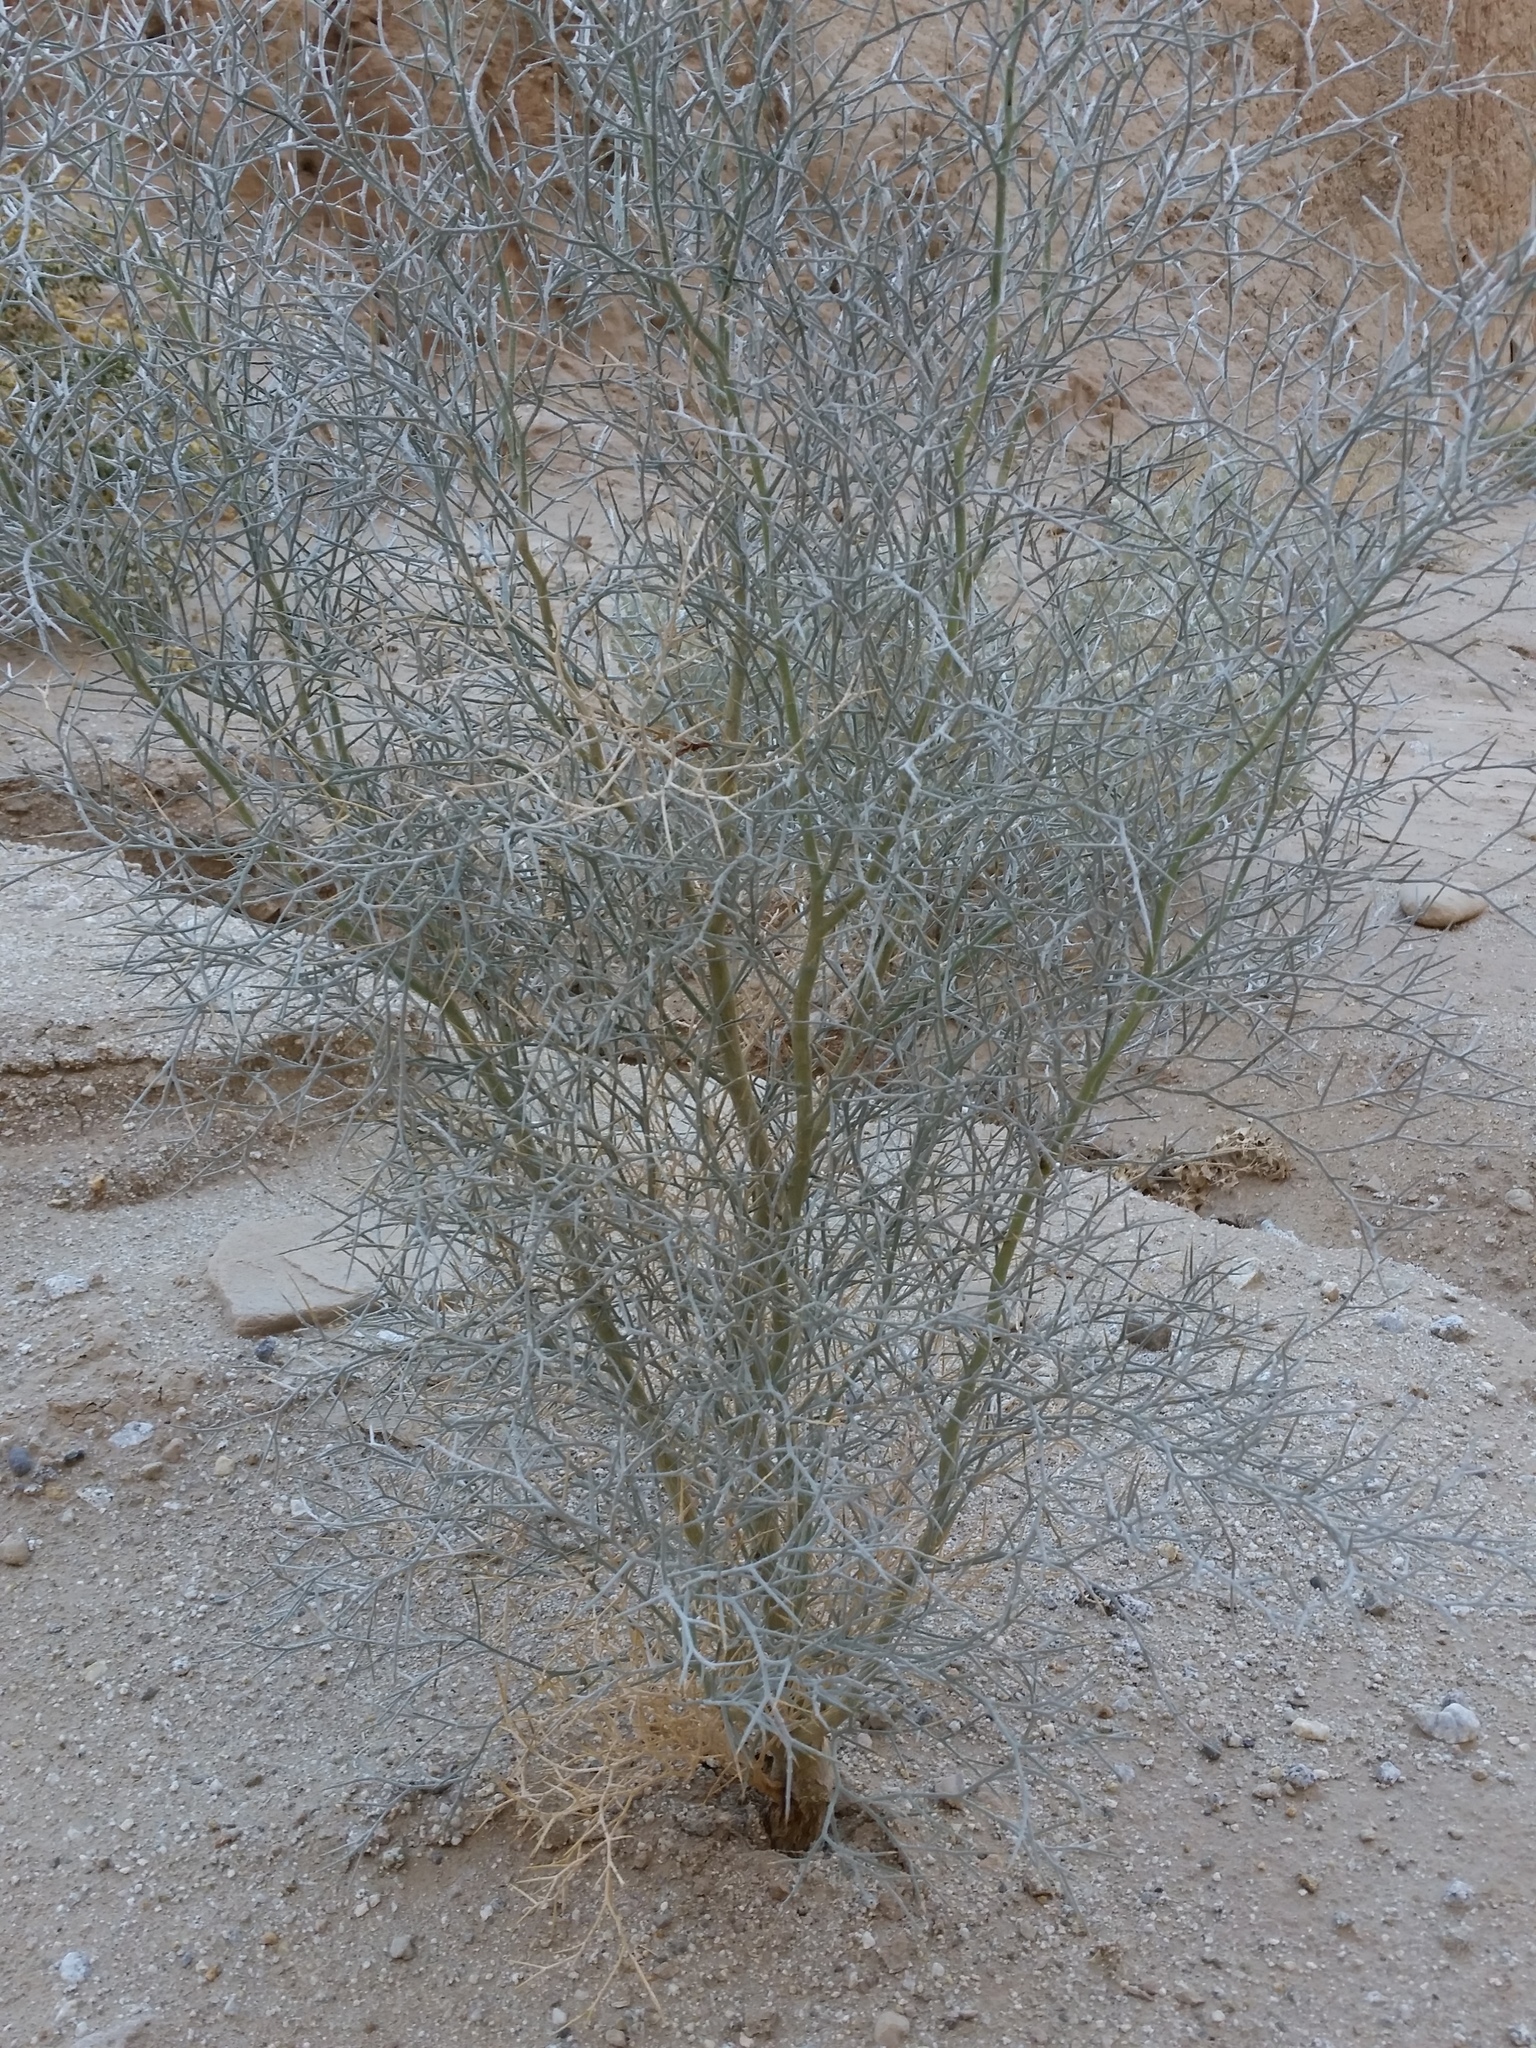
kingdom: Plantae
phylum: Tracheophyta
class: Magnoliopsida
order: Fabales
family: Fabaceae
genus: Psorothamnus
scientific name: Psorothamnus spinosus
